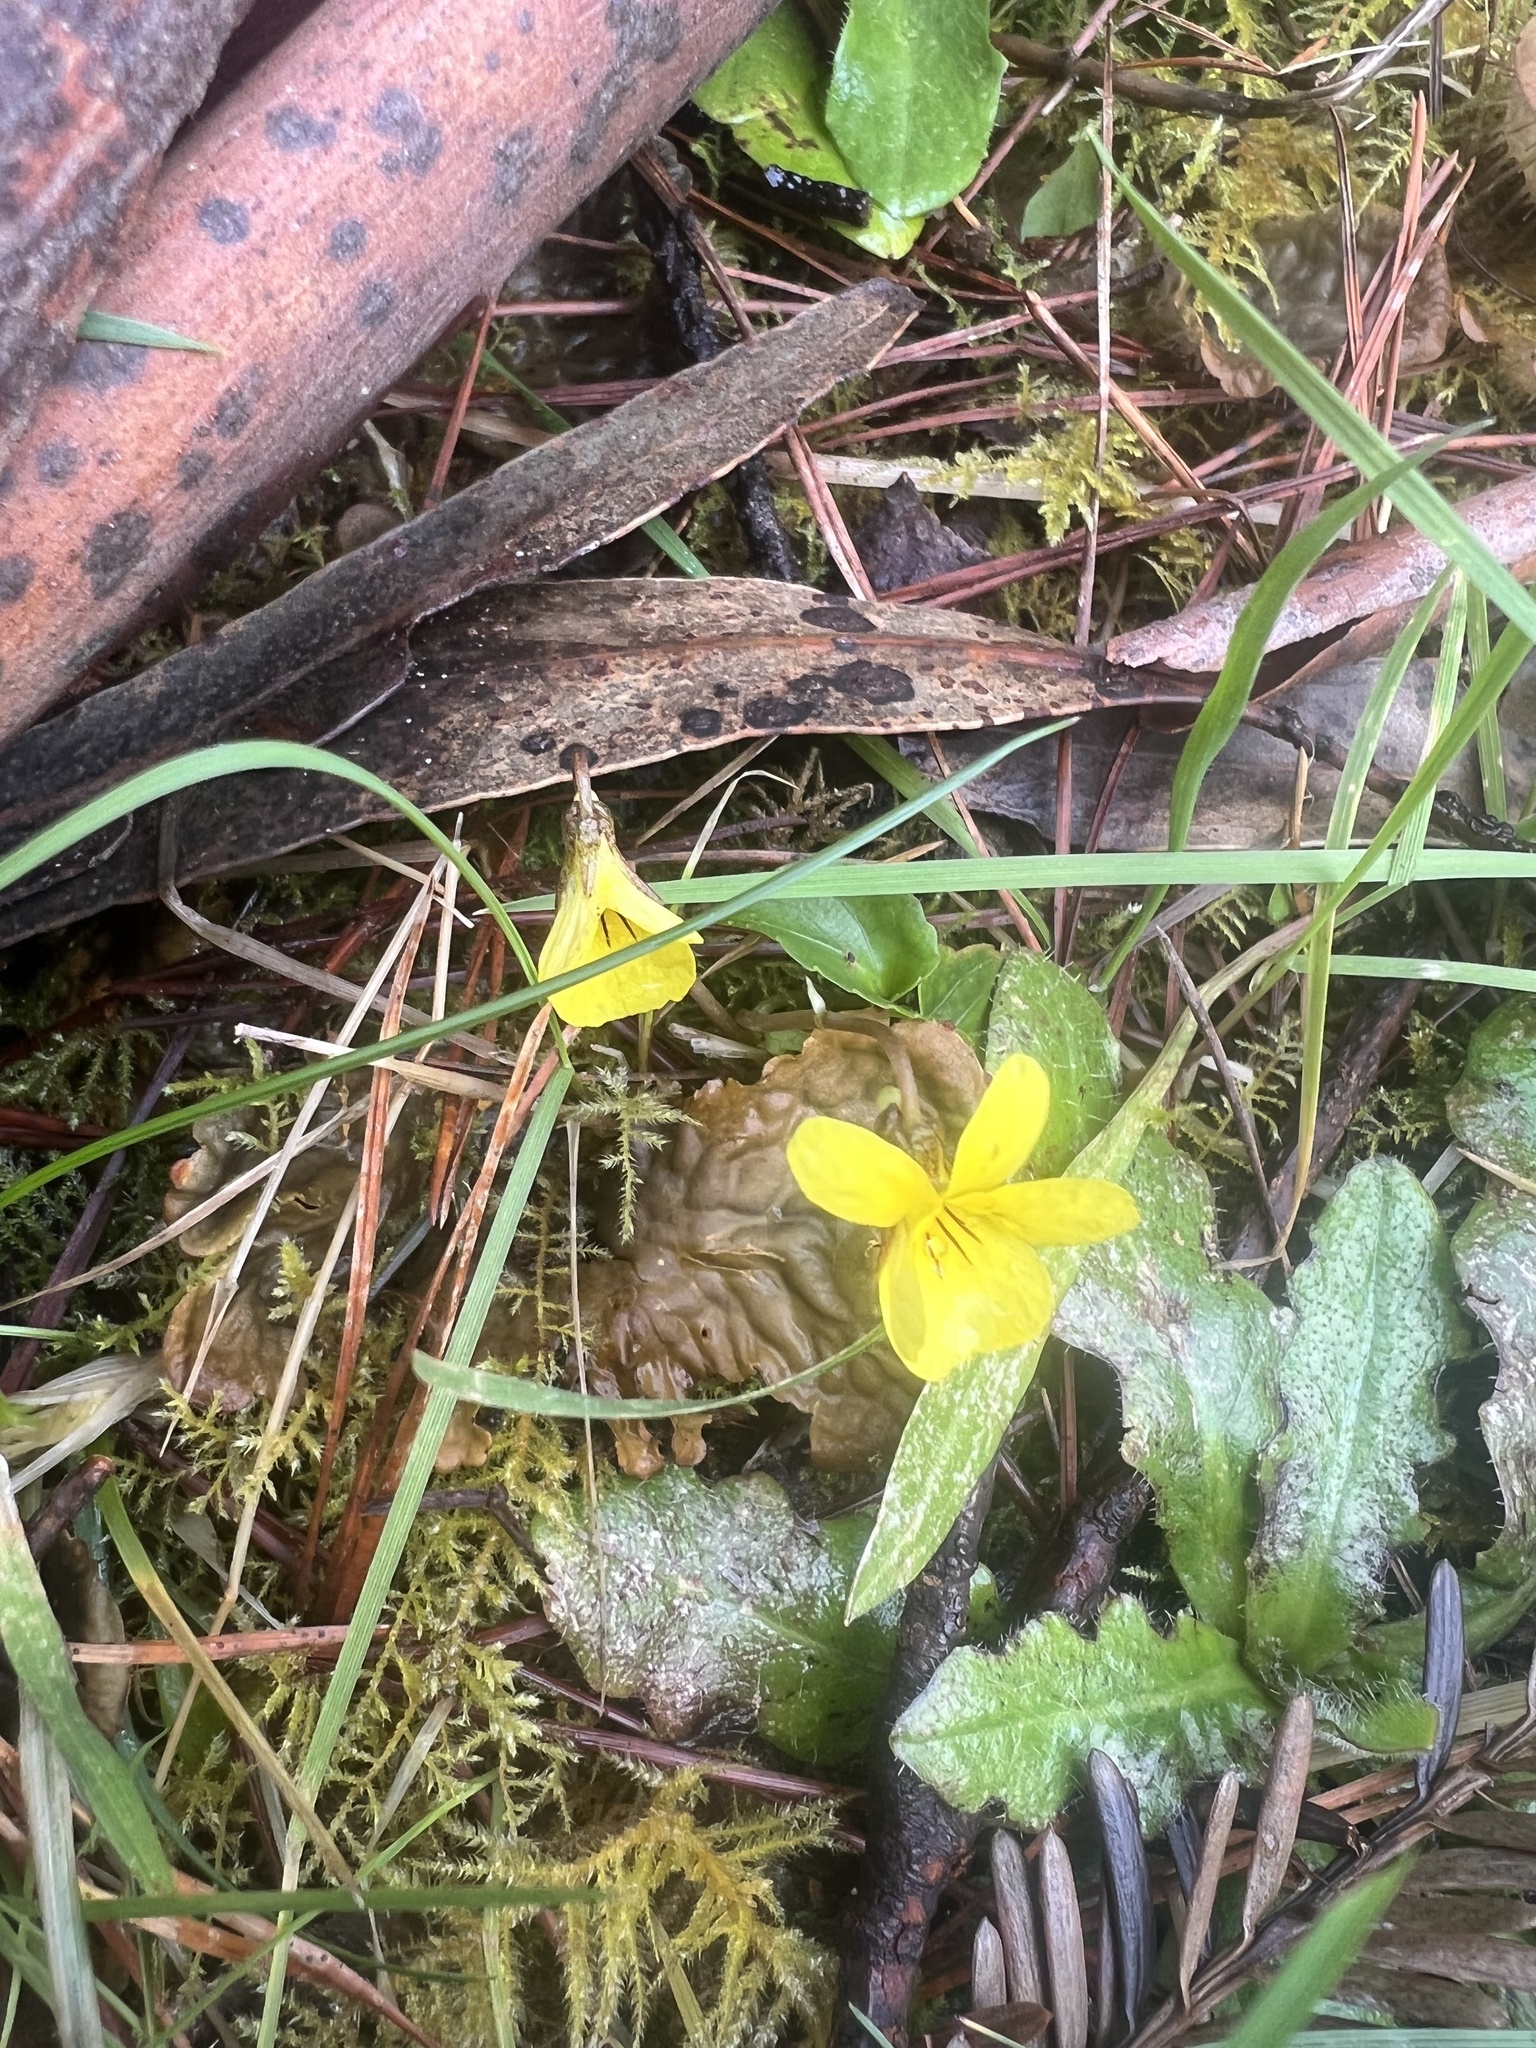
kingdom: Plantae
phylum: Tracheophyta
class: Magnoliopsida
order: Malpighiales
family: Violaceae
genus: Viola
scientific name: Viola sempervirens
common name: Evergreen violet
